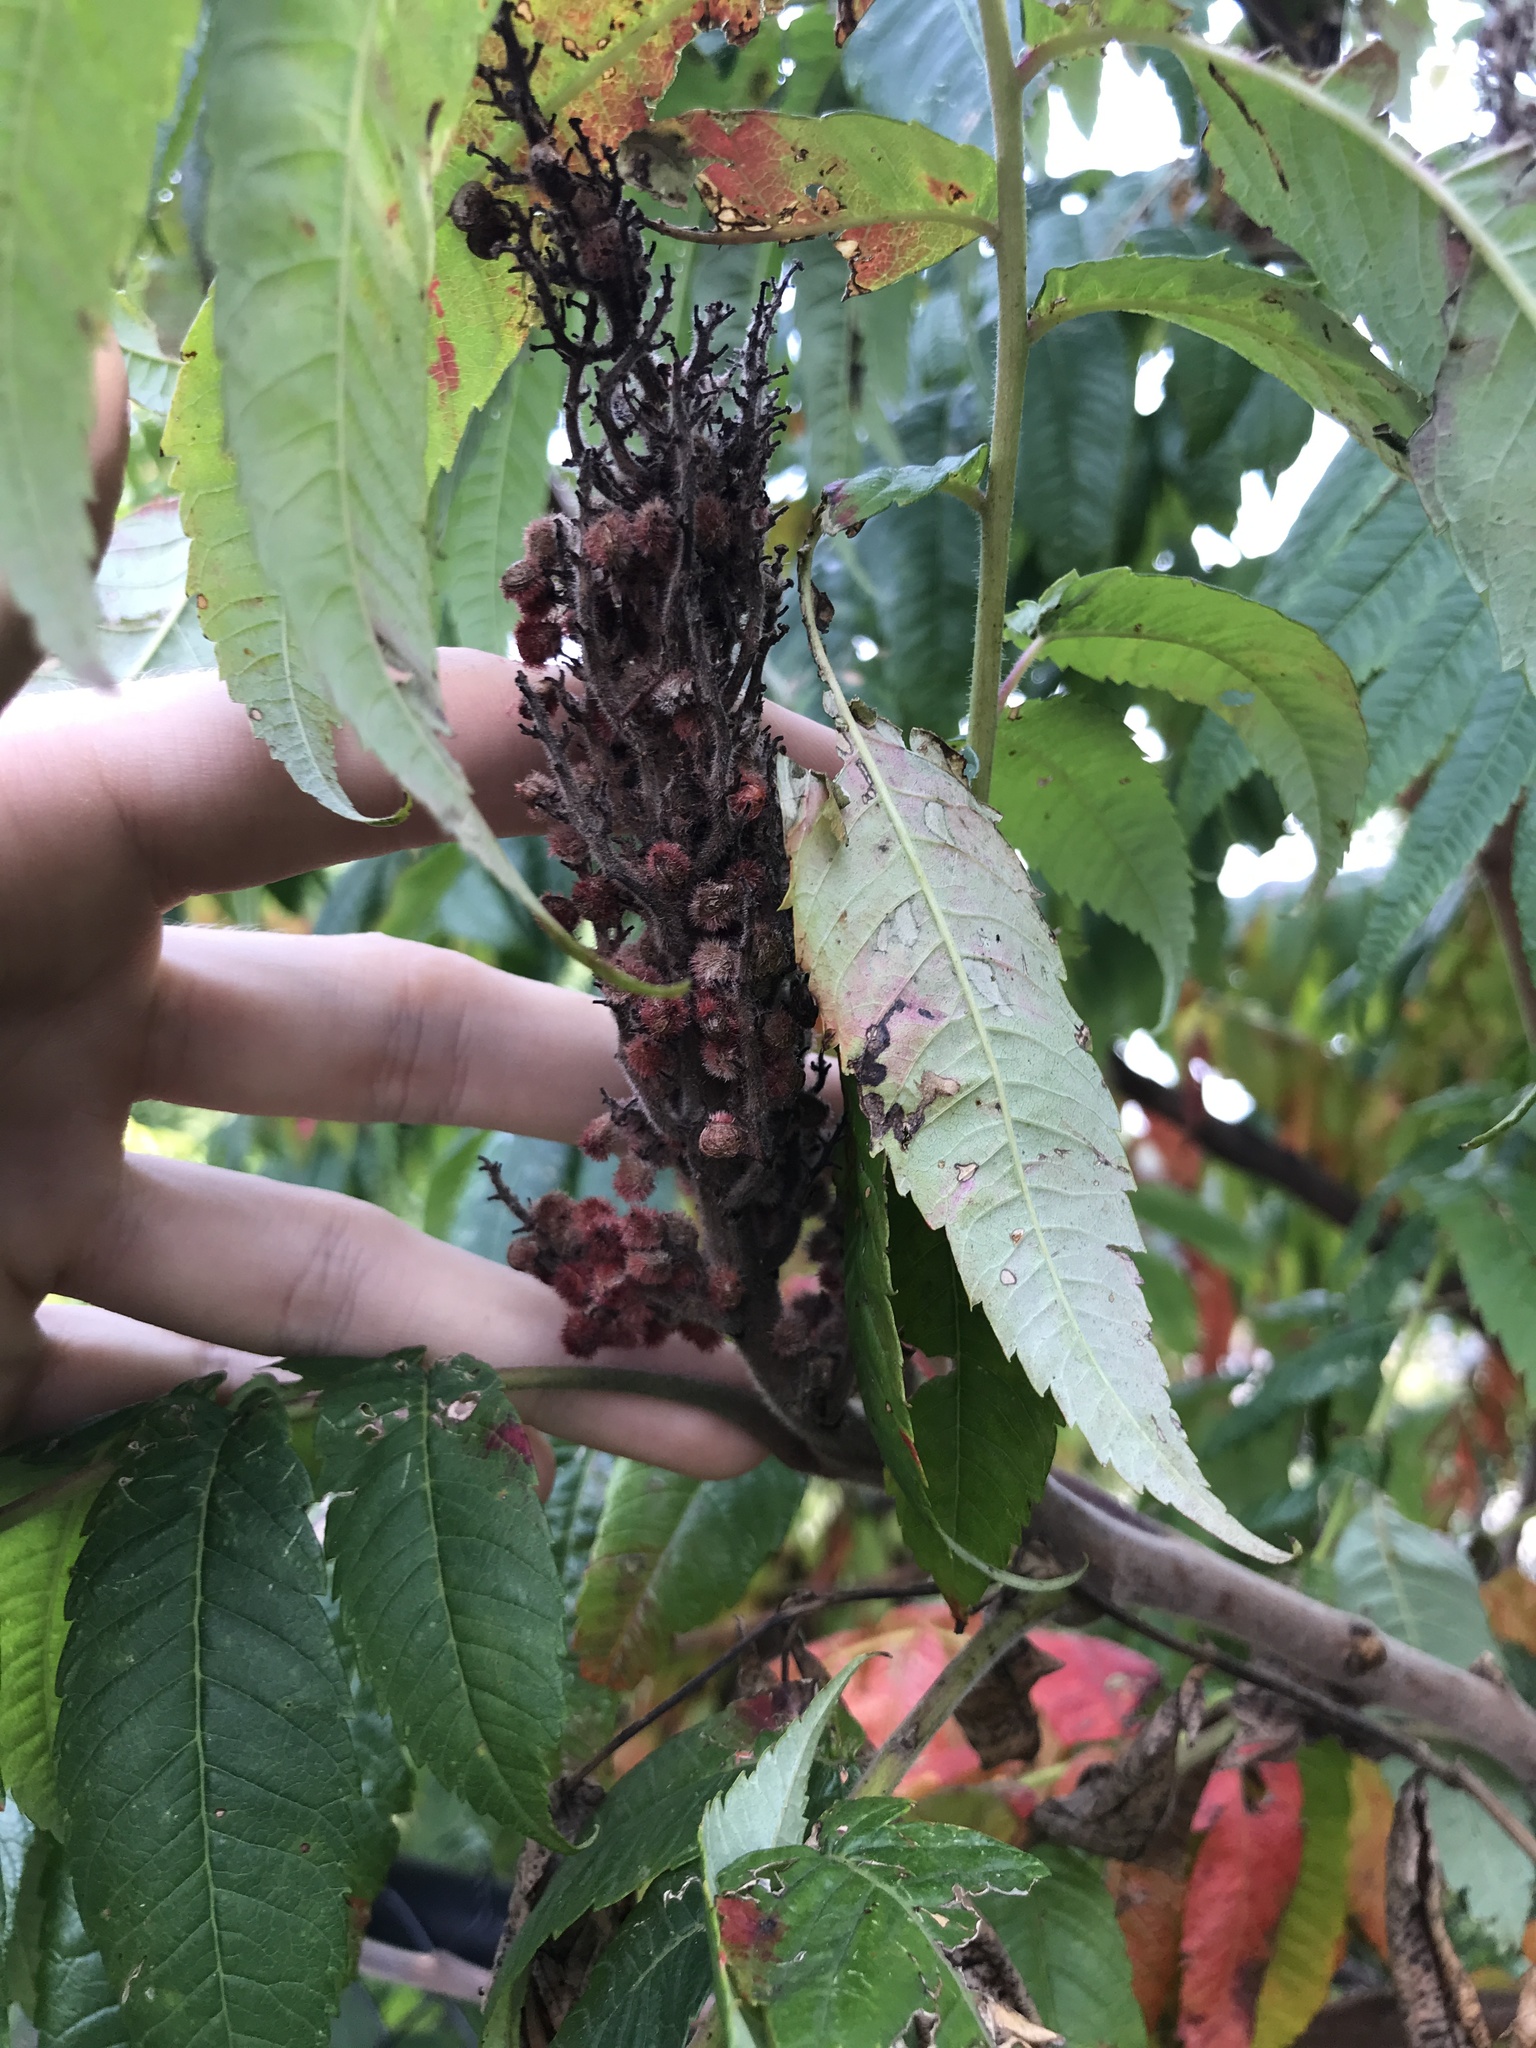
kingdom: Plantae
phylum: Tracheophyta
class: Magnoliopsida
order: Sapindales
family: Anacardiaceae
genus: Rhus
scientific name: Rhus typhina
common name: Staghorn sumac
